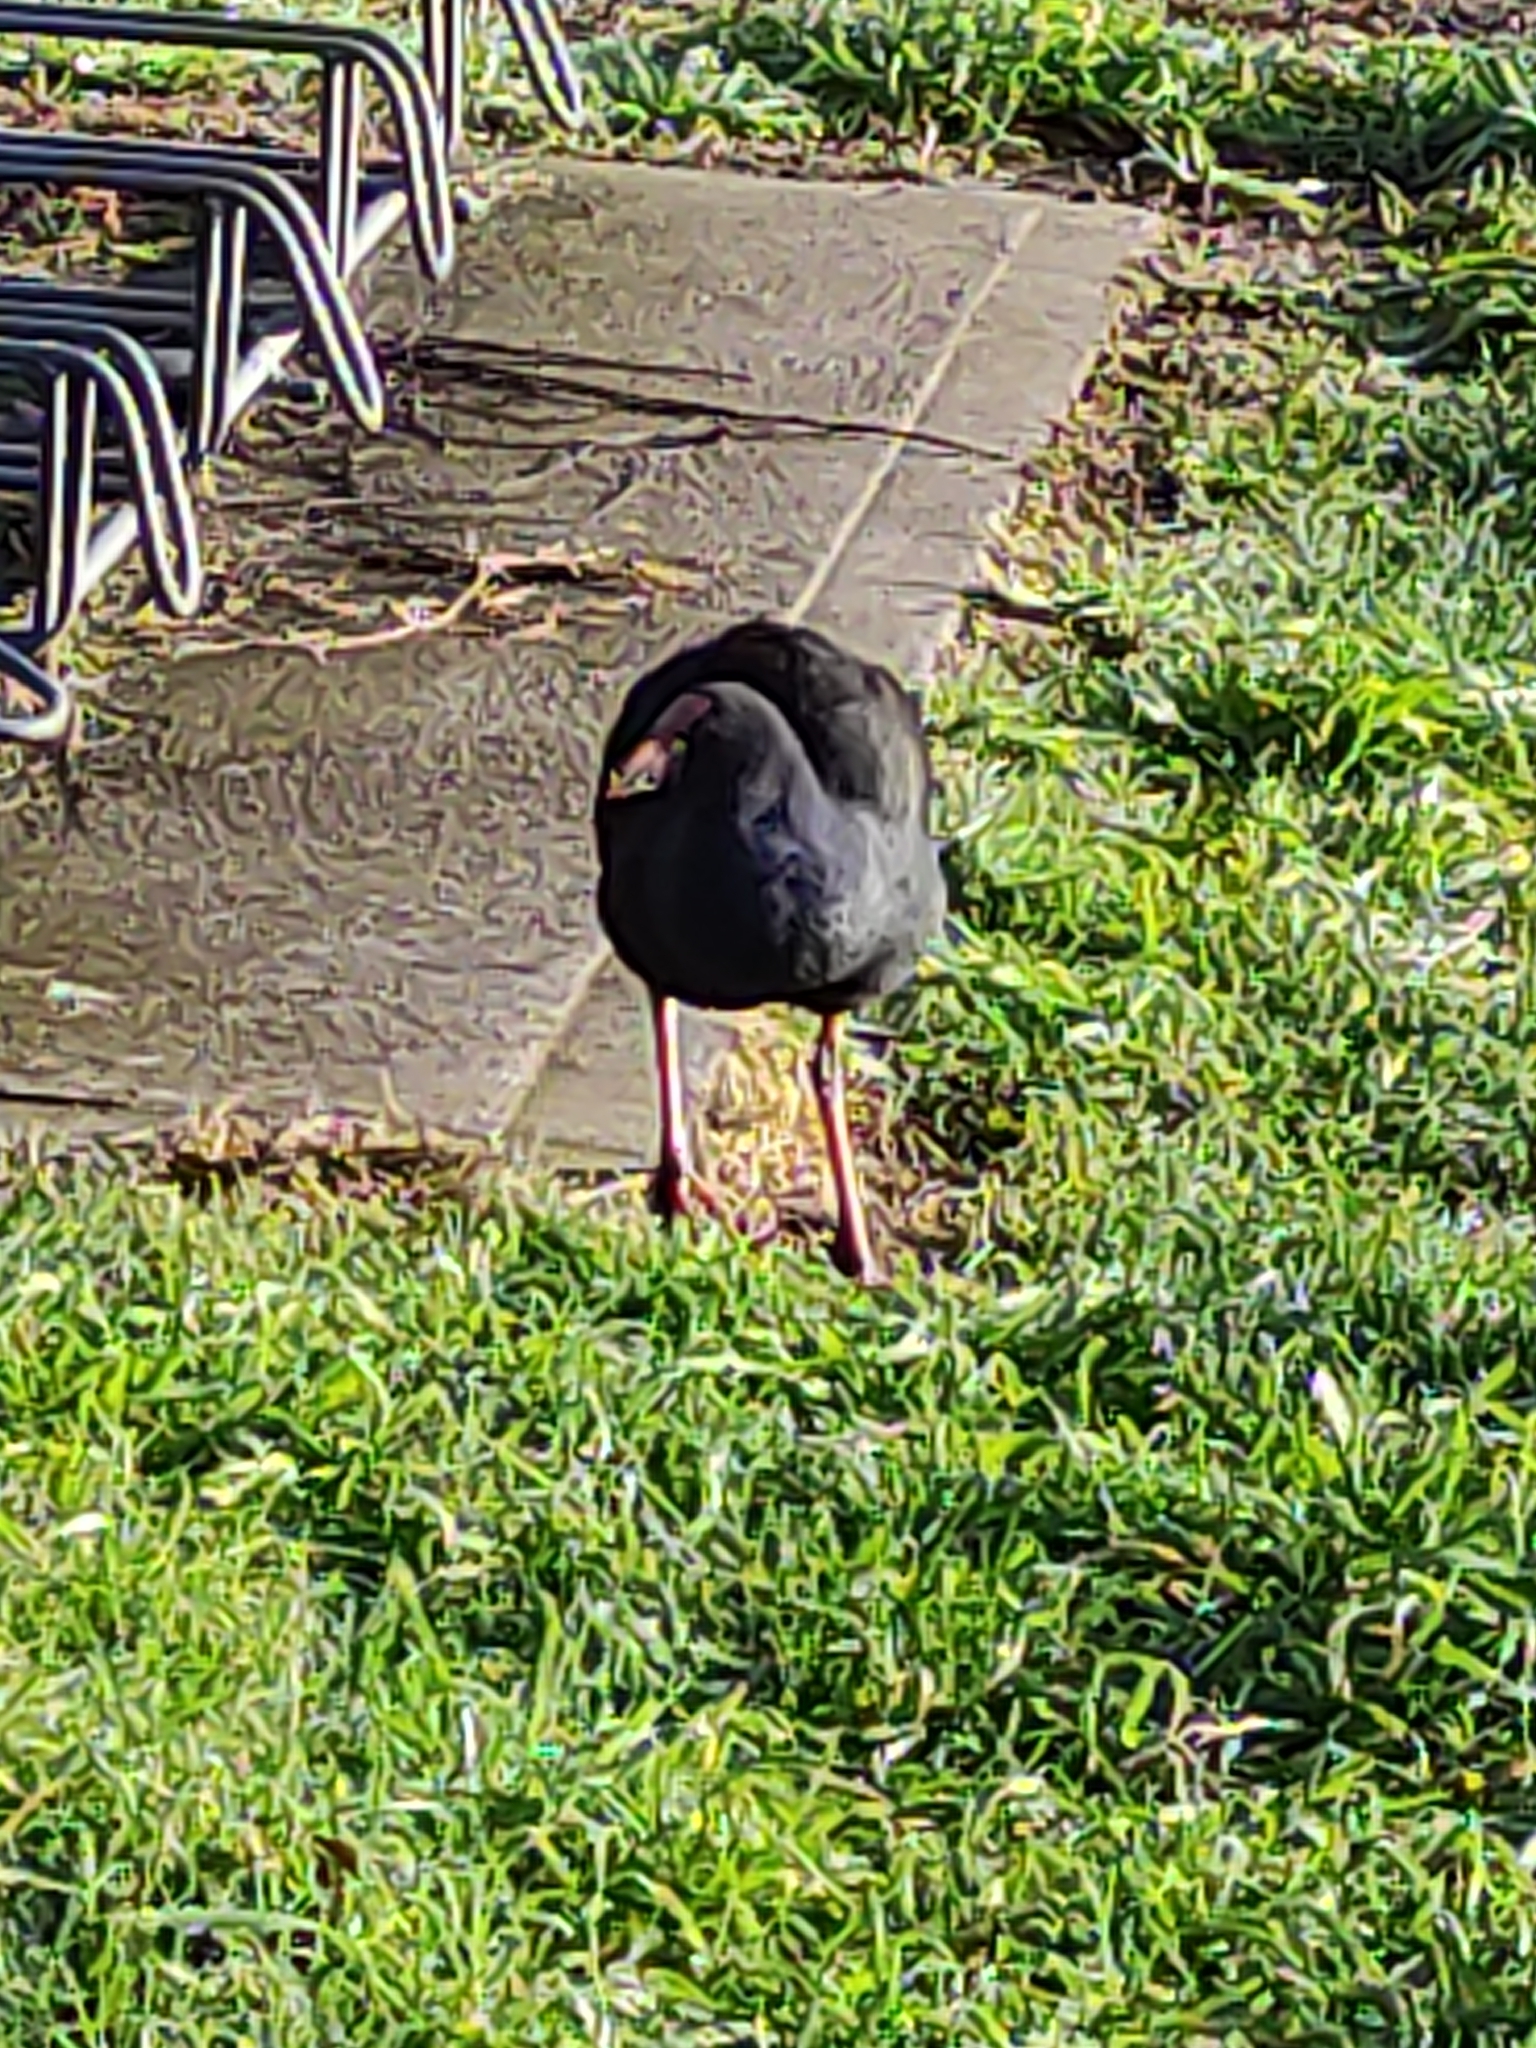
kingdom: Animalia
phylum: Chordata
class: Aves
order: Gruiformes
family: Rallidae
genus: Porphyrio
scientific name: Porphyrio melanotus
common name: Australasian swamphen
